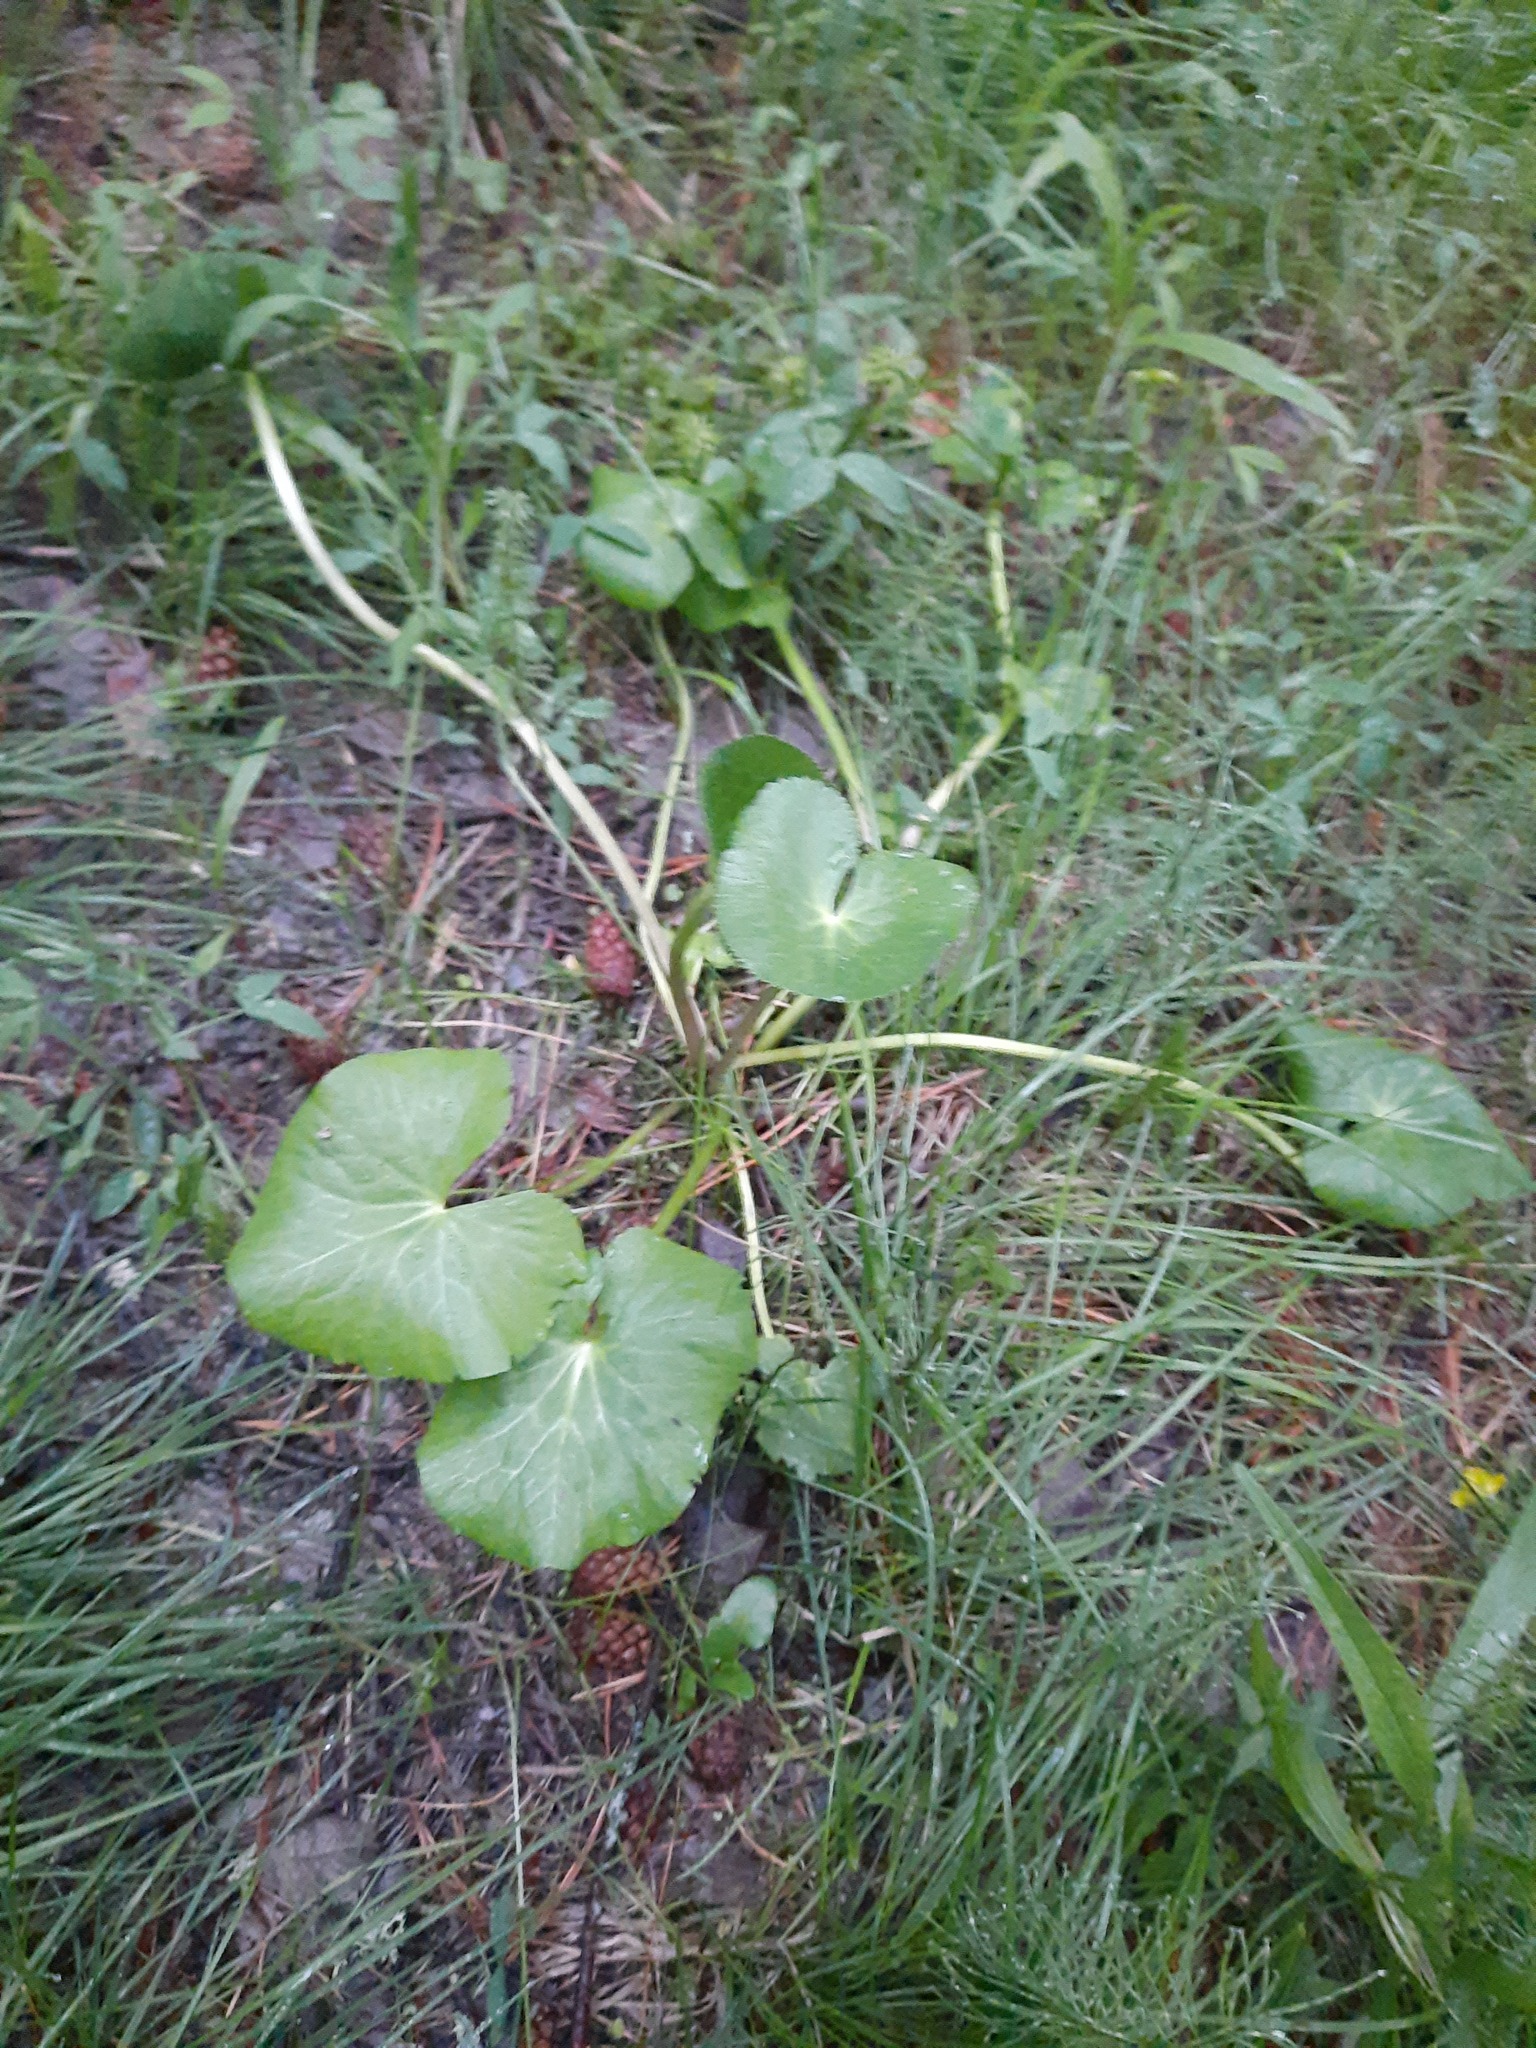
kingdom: Plantae
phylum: Tracheophyta
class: Magnoliopsida
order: Ranunculales
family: Ranunculaceae
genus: Caltha
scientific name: Caltha palustris
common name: Marsh marigold
